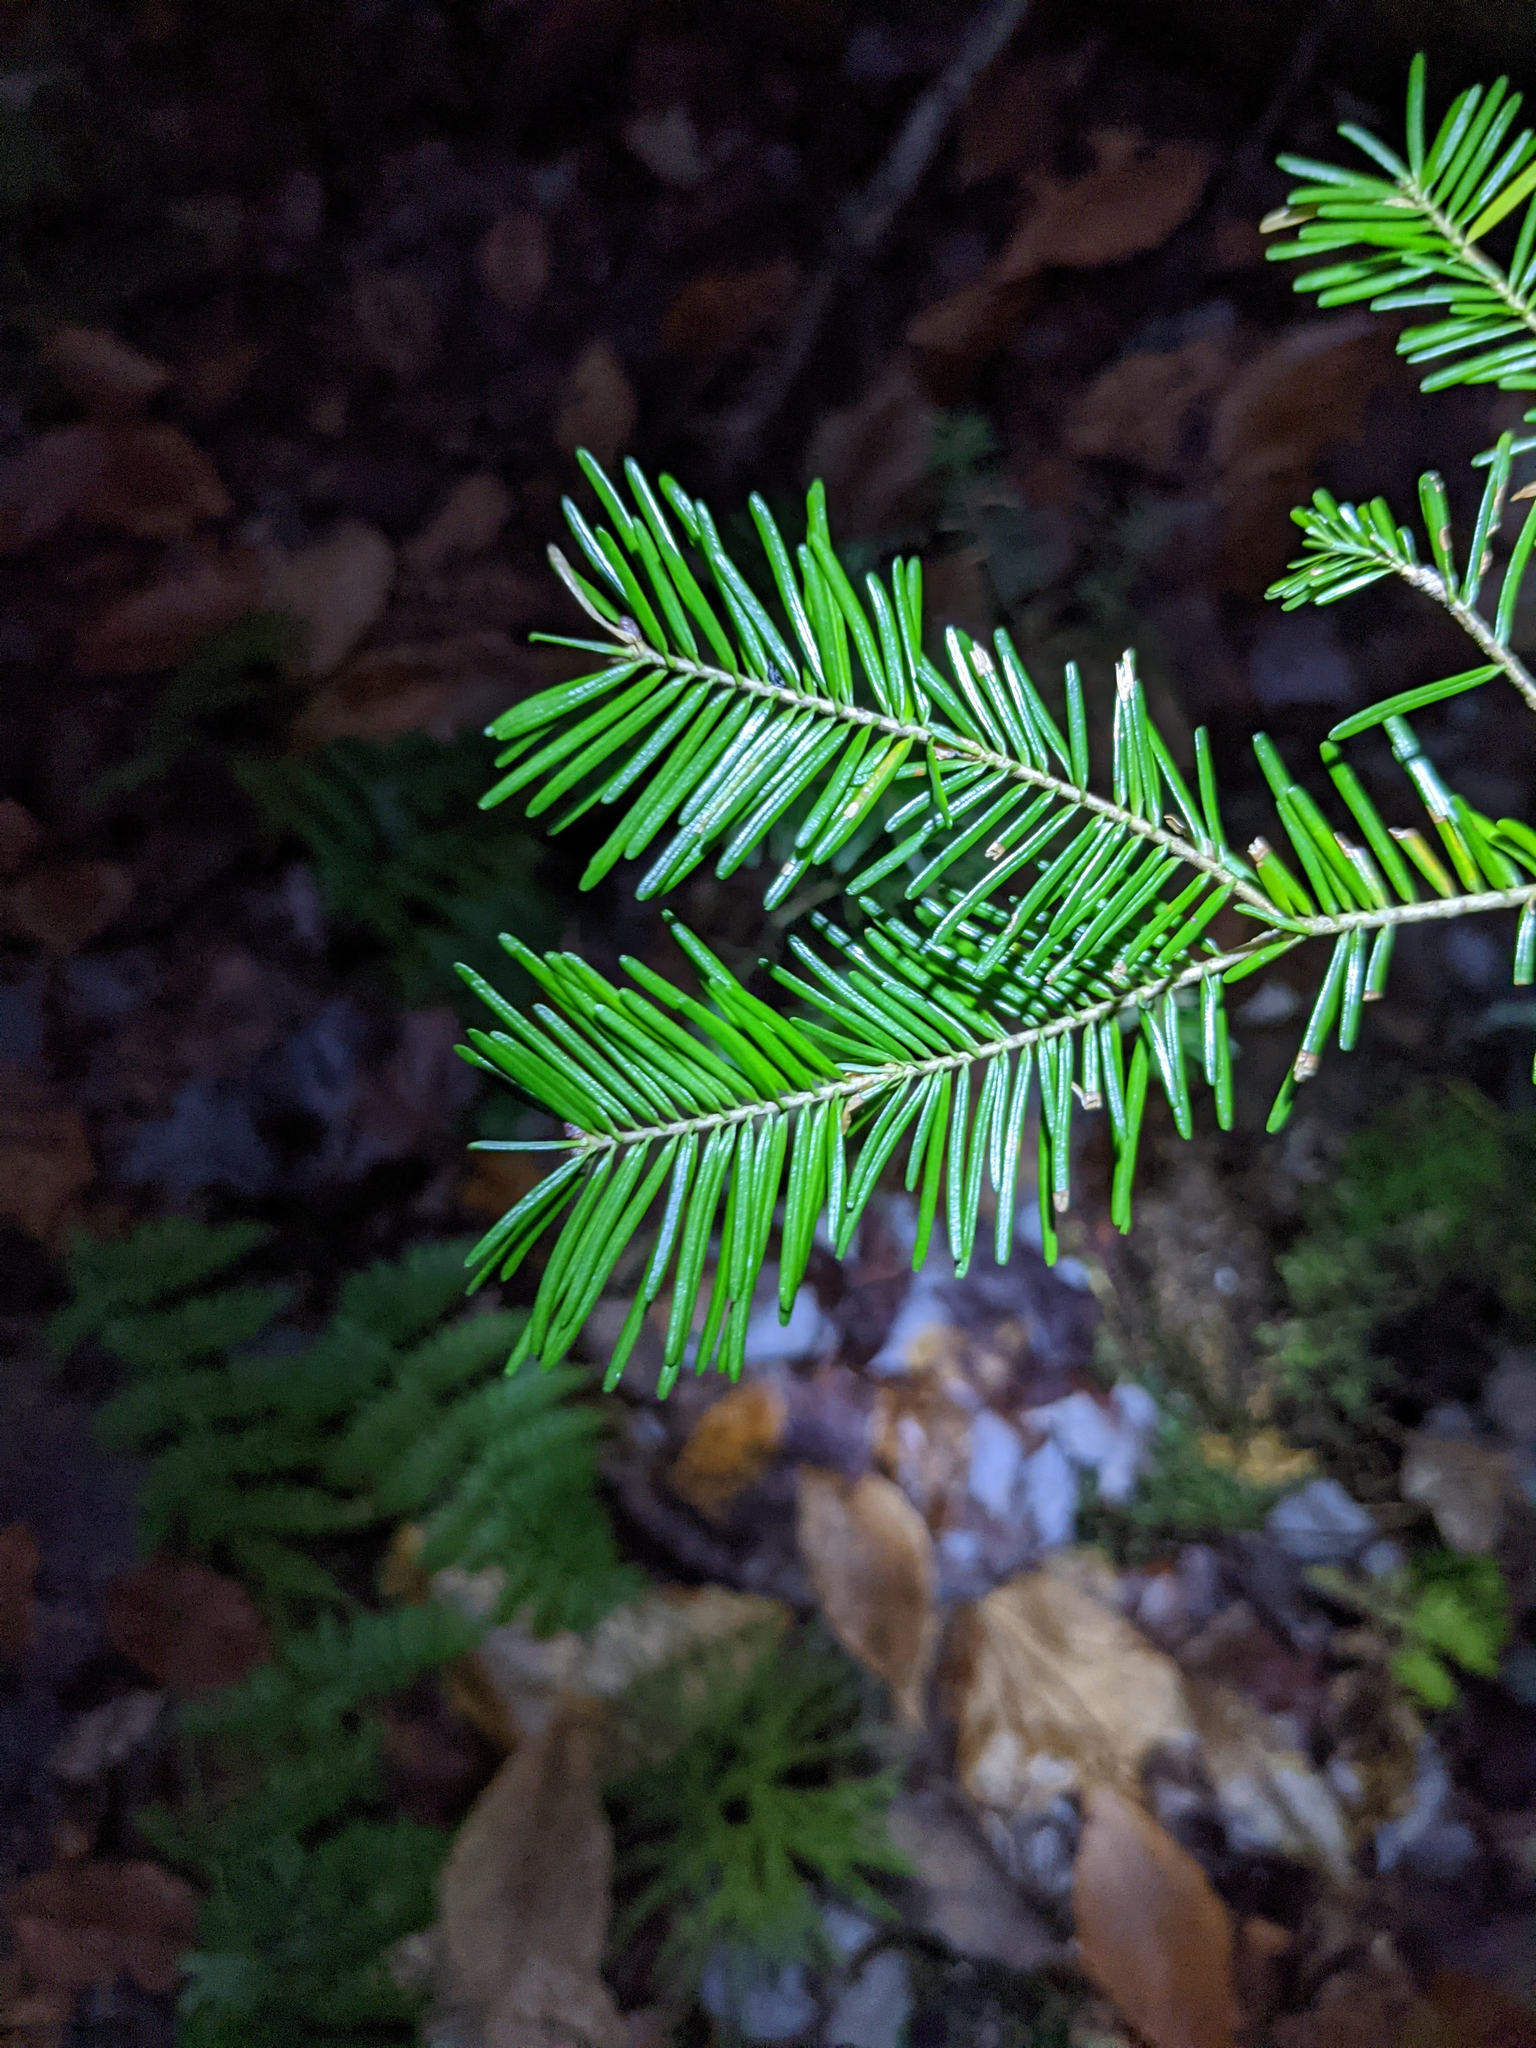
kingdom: Plantae
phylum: Tracheophyta
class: Pinopsida
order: Pinales
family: Pinaceae
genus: Abies
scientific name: Abies balsamea
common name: Balsam fir
